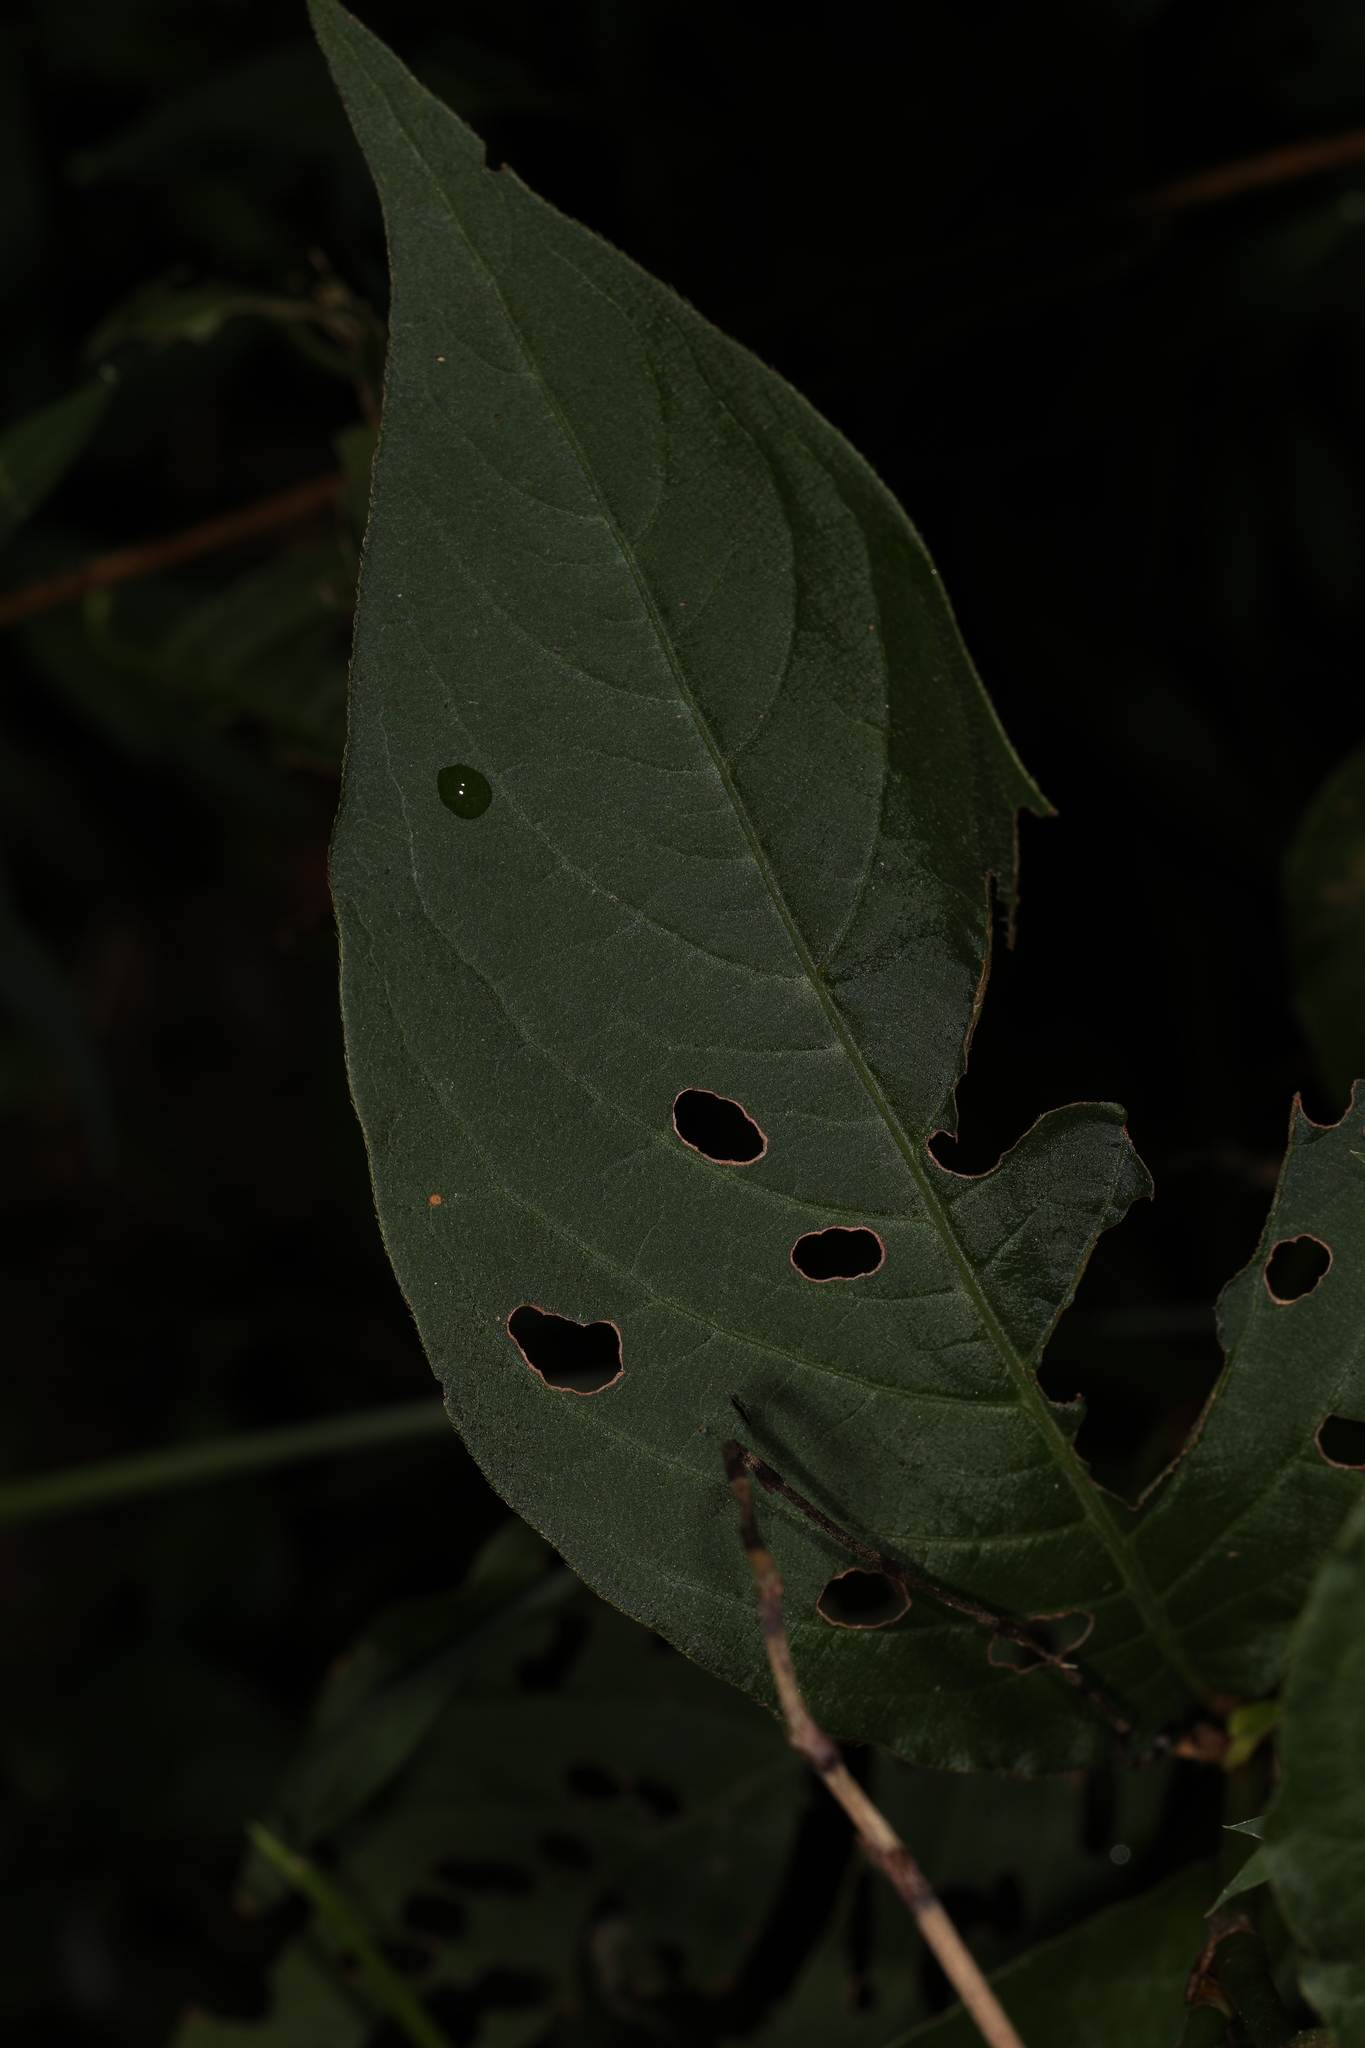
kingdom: Plantae
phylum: Tracheophyta
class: Magnoliopsida
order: Caryophyllales
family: Polygonaceae
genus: Persicaria
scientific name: Persicaria virginiana
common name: Jumpseed
